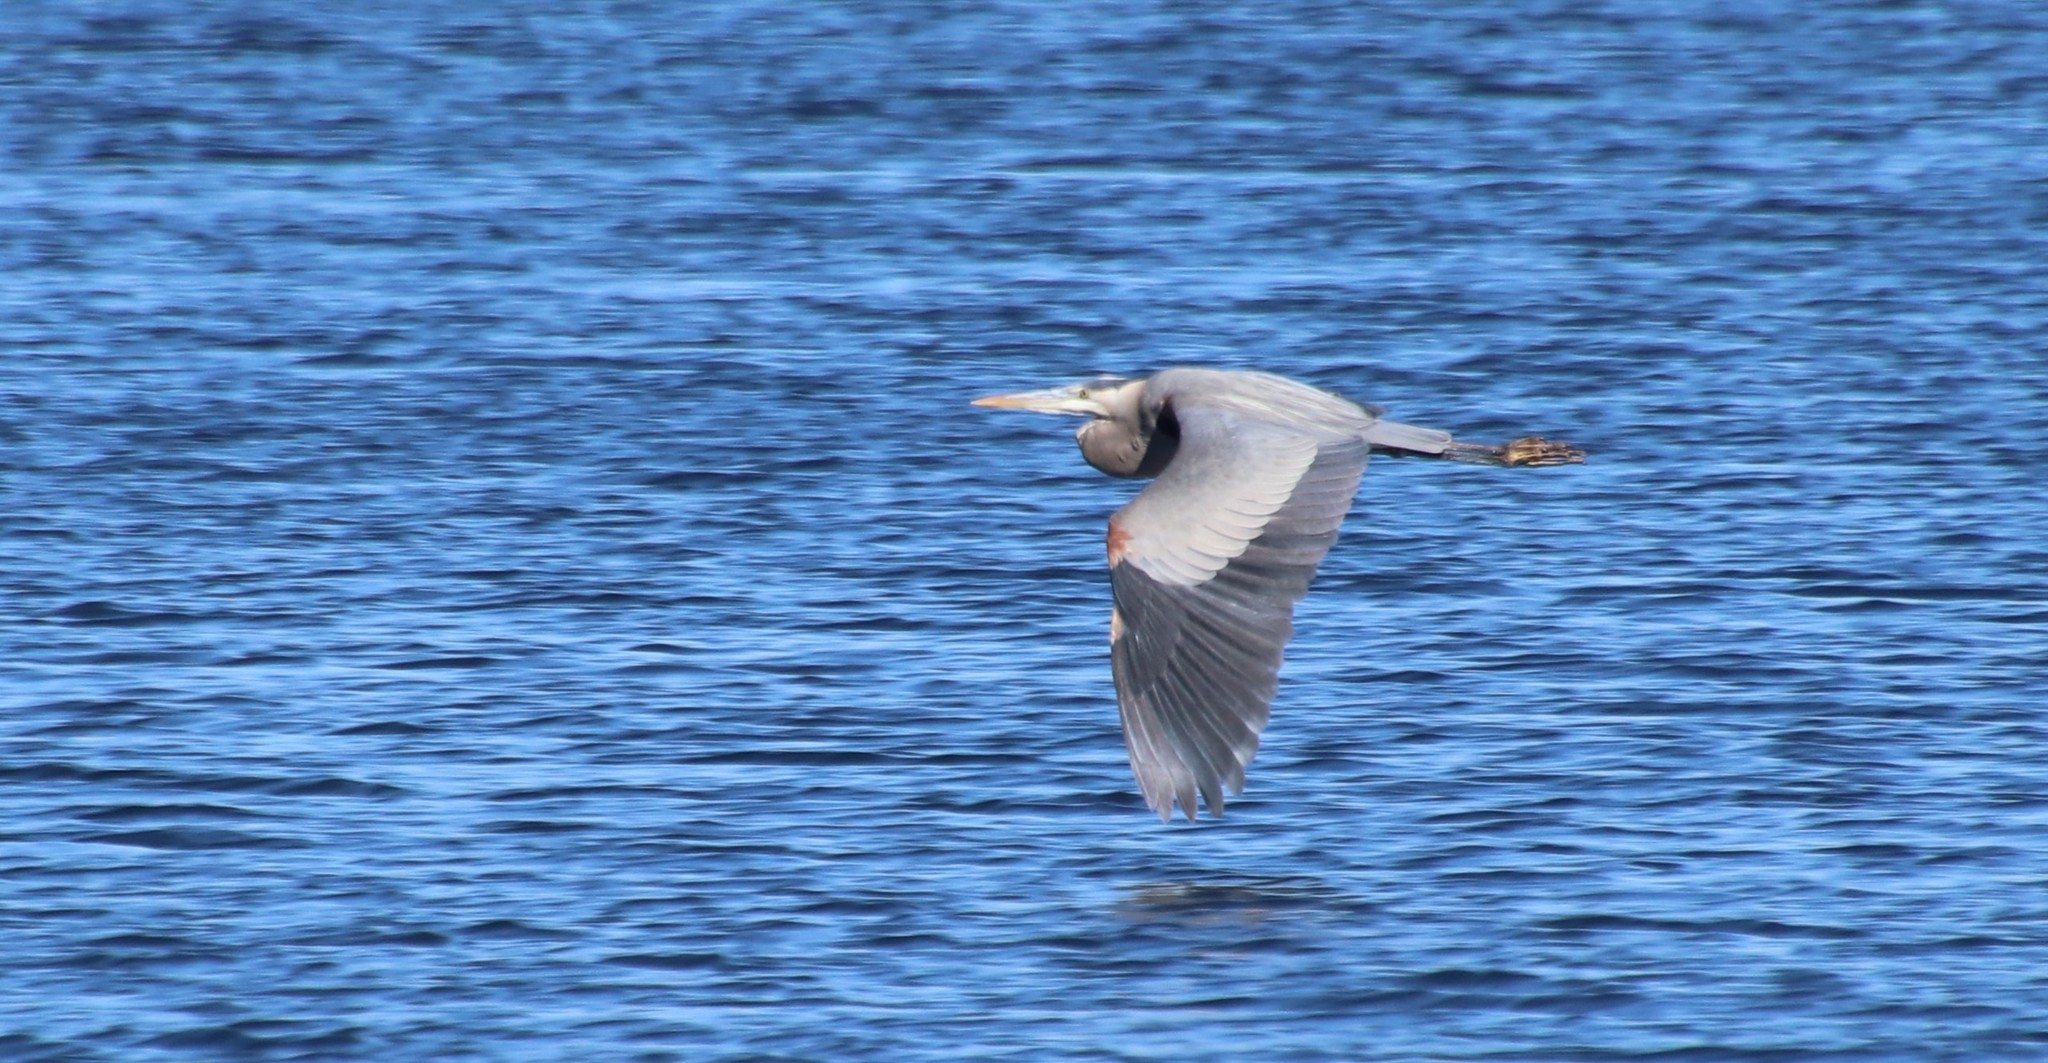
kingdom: Animalia
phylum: Chordata
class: Aves
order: Pelecaniformes
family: Ardeidae
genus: Ardea
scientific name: Ardea herodias
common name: Great blue heron
